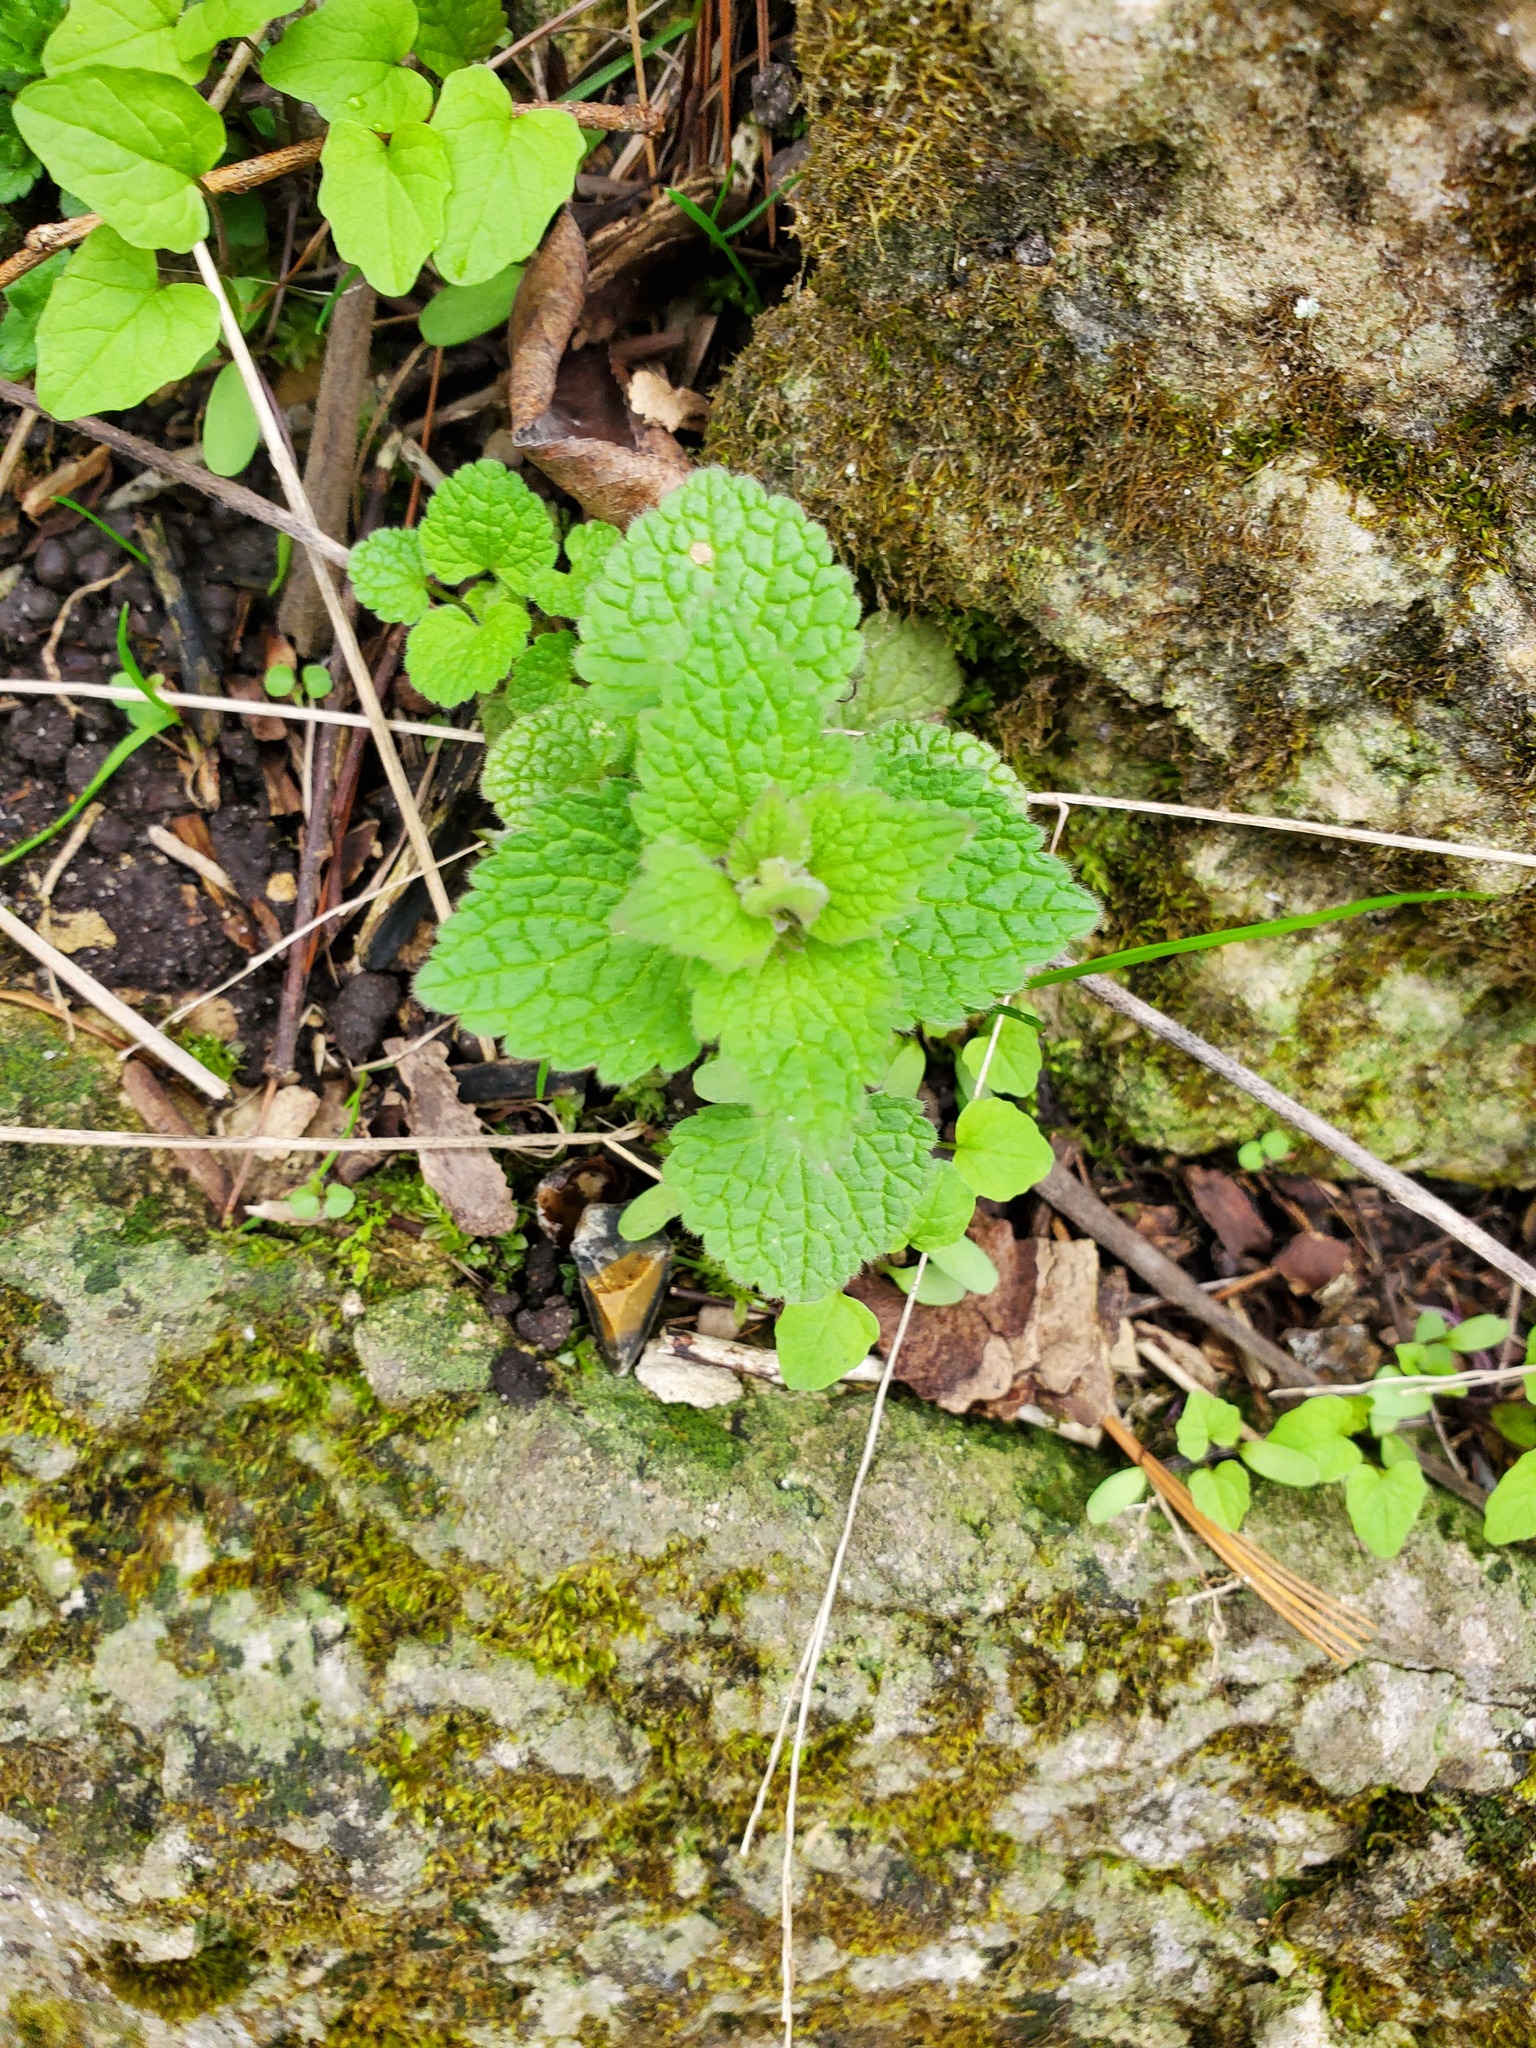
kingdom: Plantae
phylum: Tracheophyta
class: Magnoliopsida
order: Lamiales
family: Lamiaceae
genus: Lamium
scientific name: Lamium purpureum
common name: Red dead-nettle
